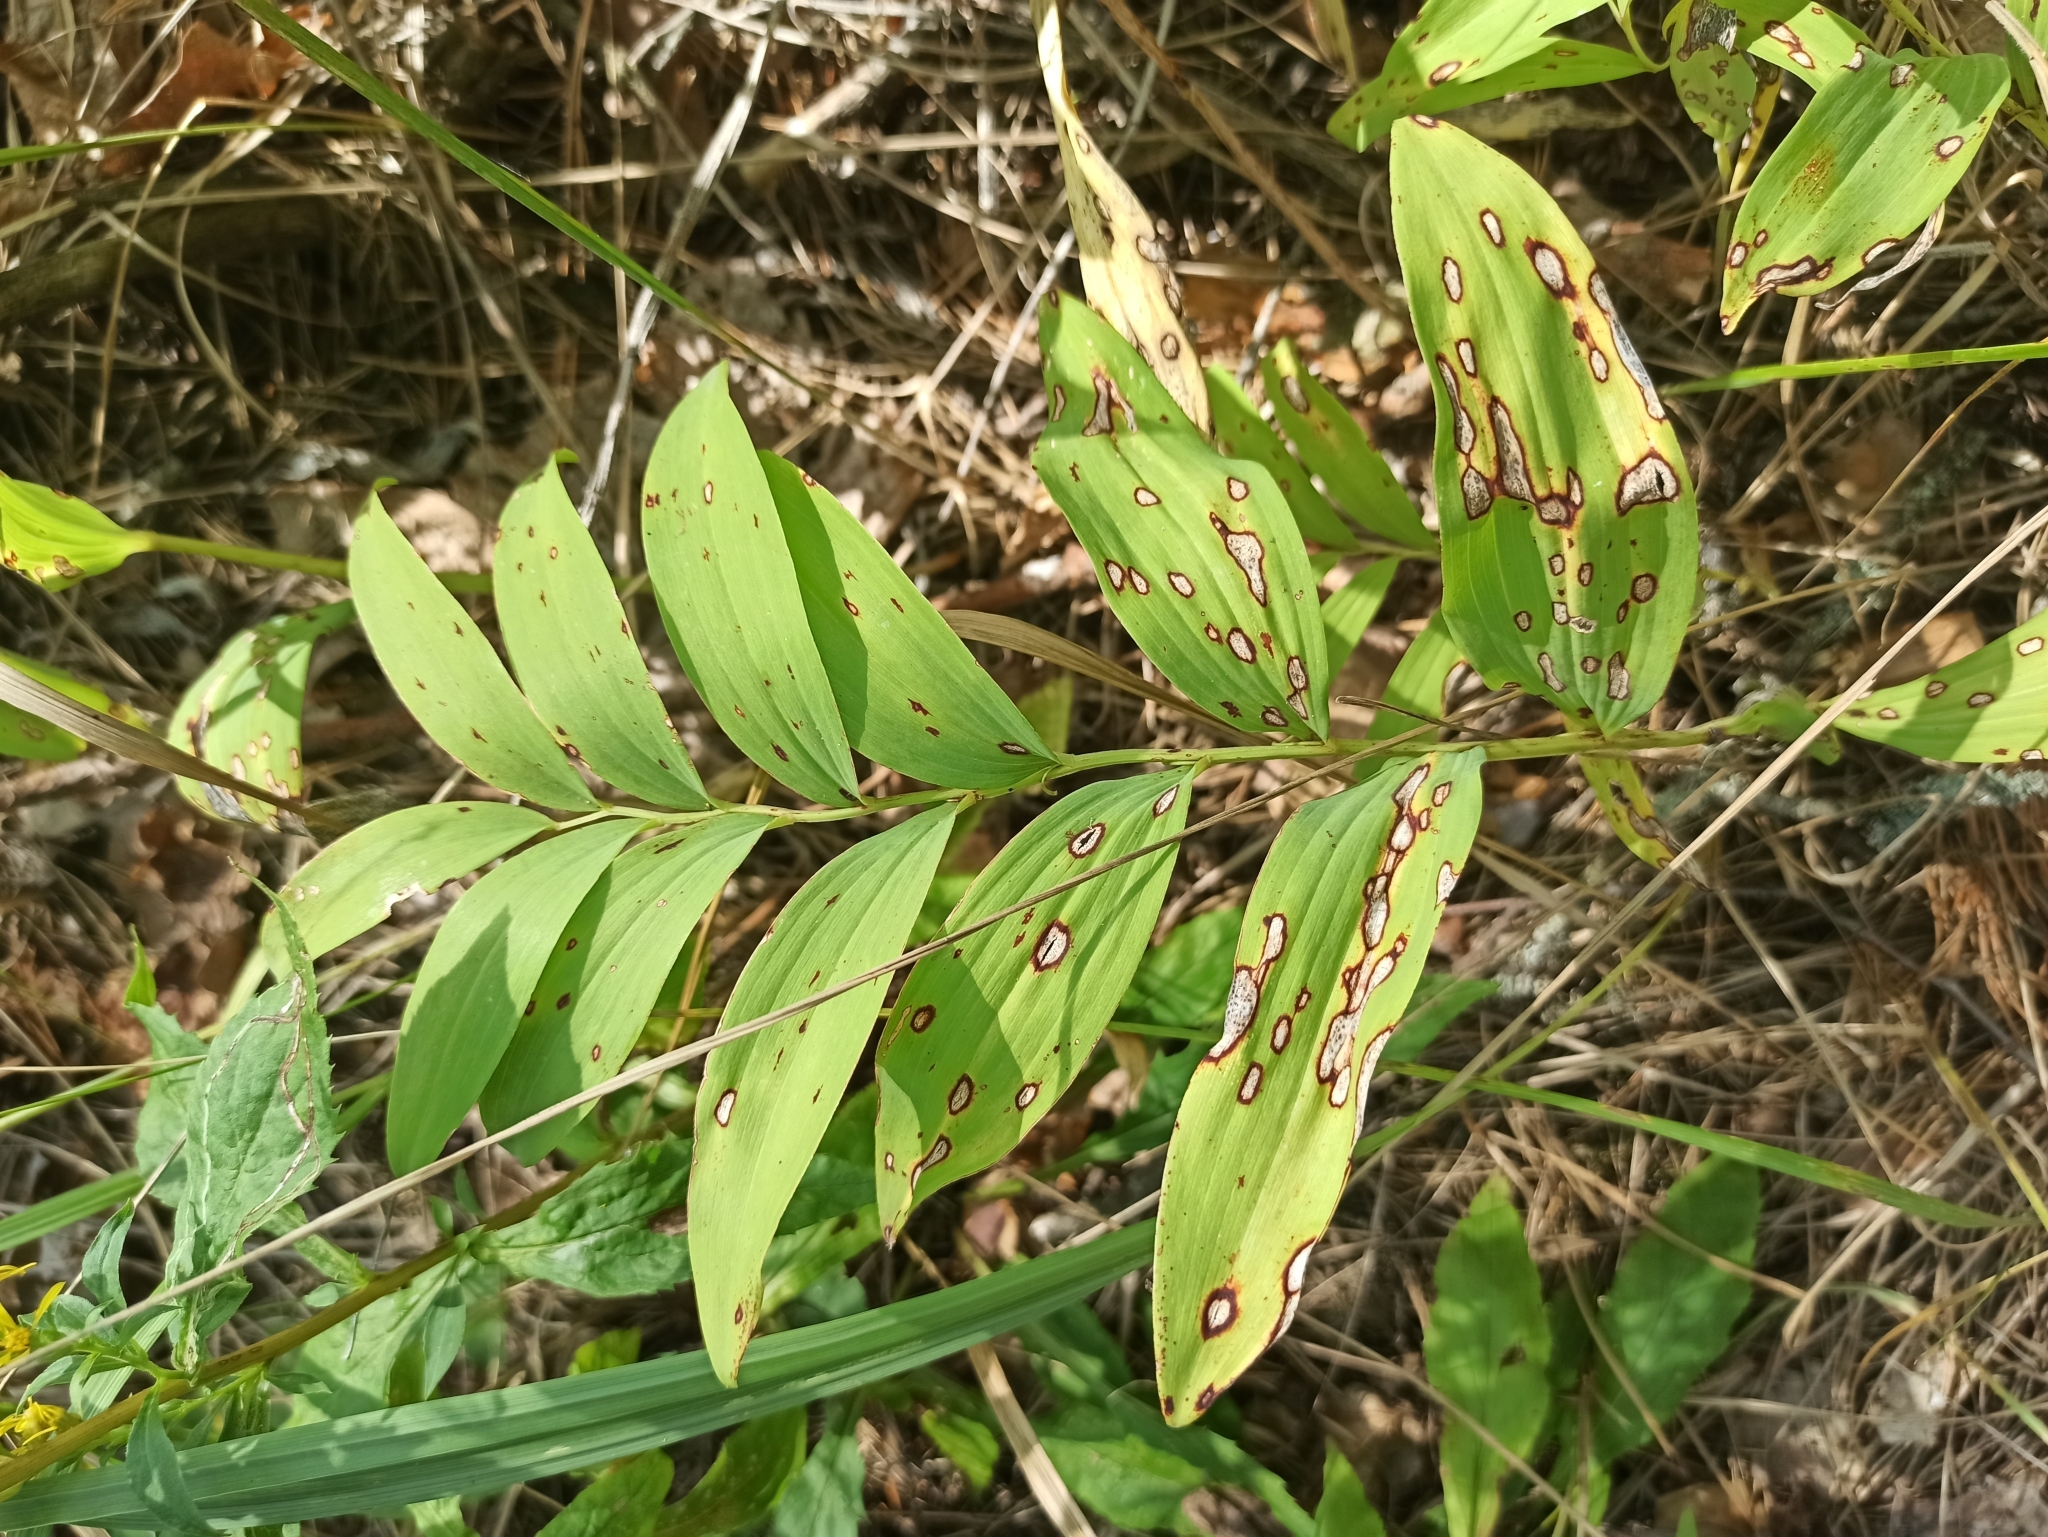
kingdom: Plantae
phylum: Tracheophyta
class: Liliopsida
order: Asparagales
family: Asparagaceae
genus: Polygonatum
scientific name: Polygonatum multiflorum
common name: Solomon's-seal
